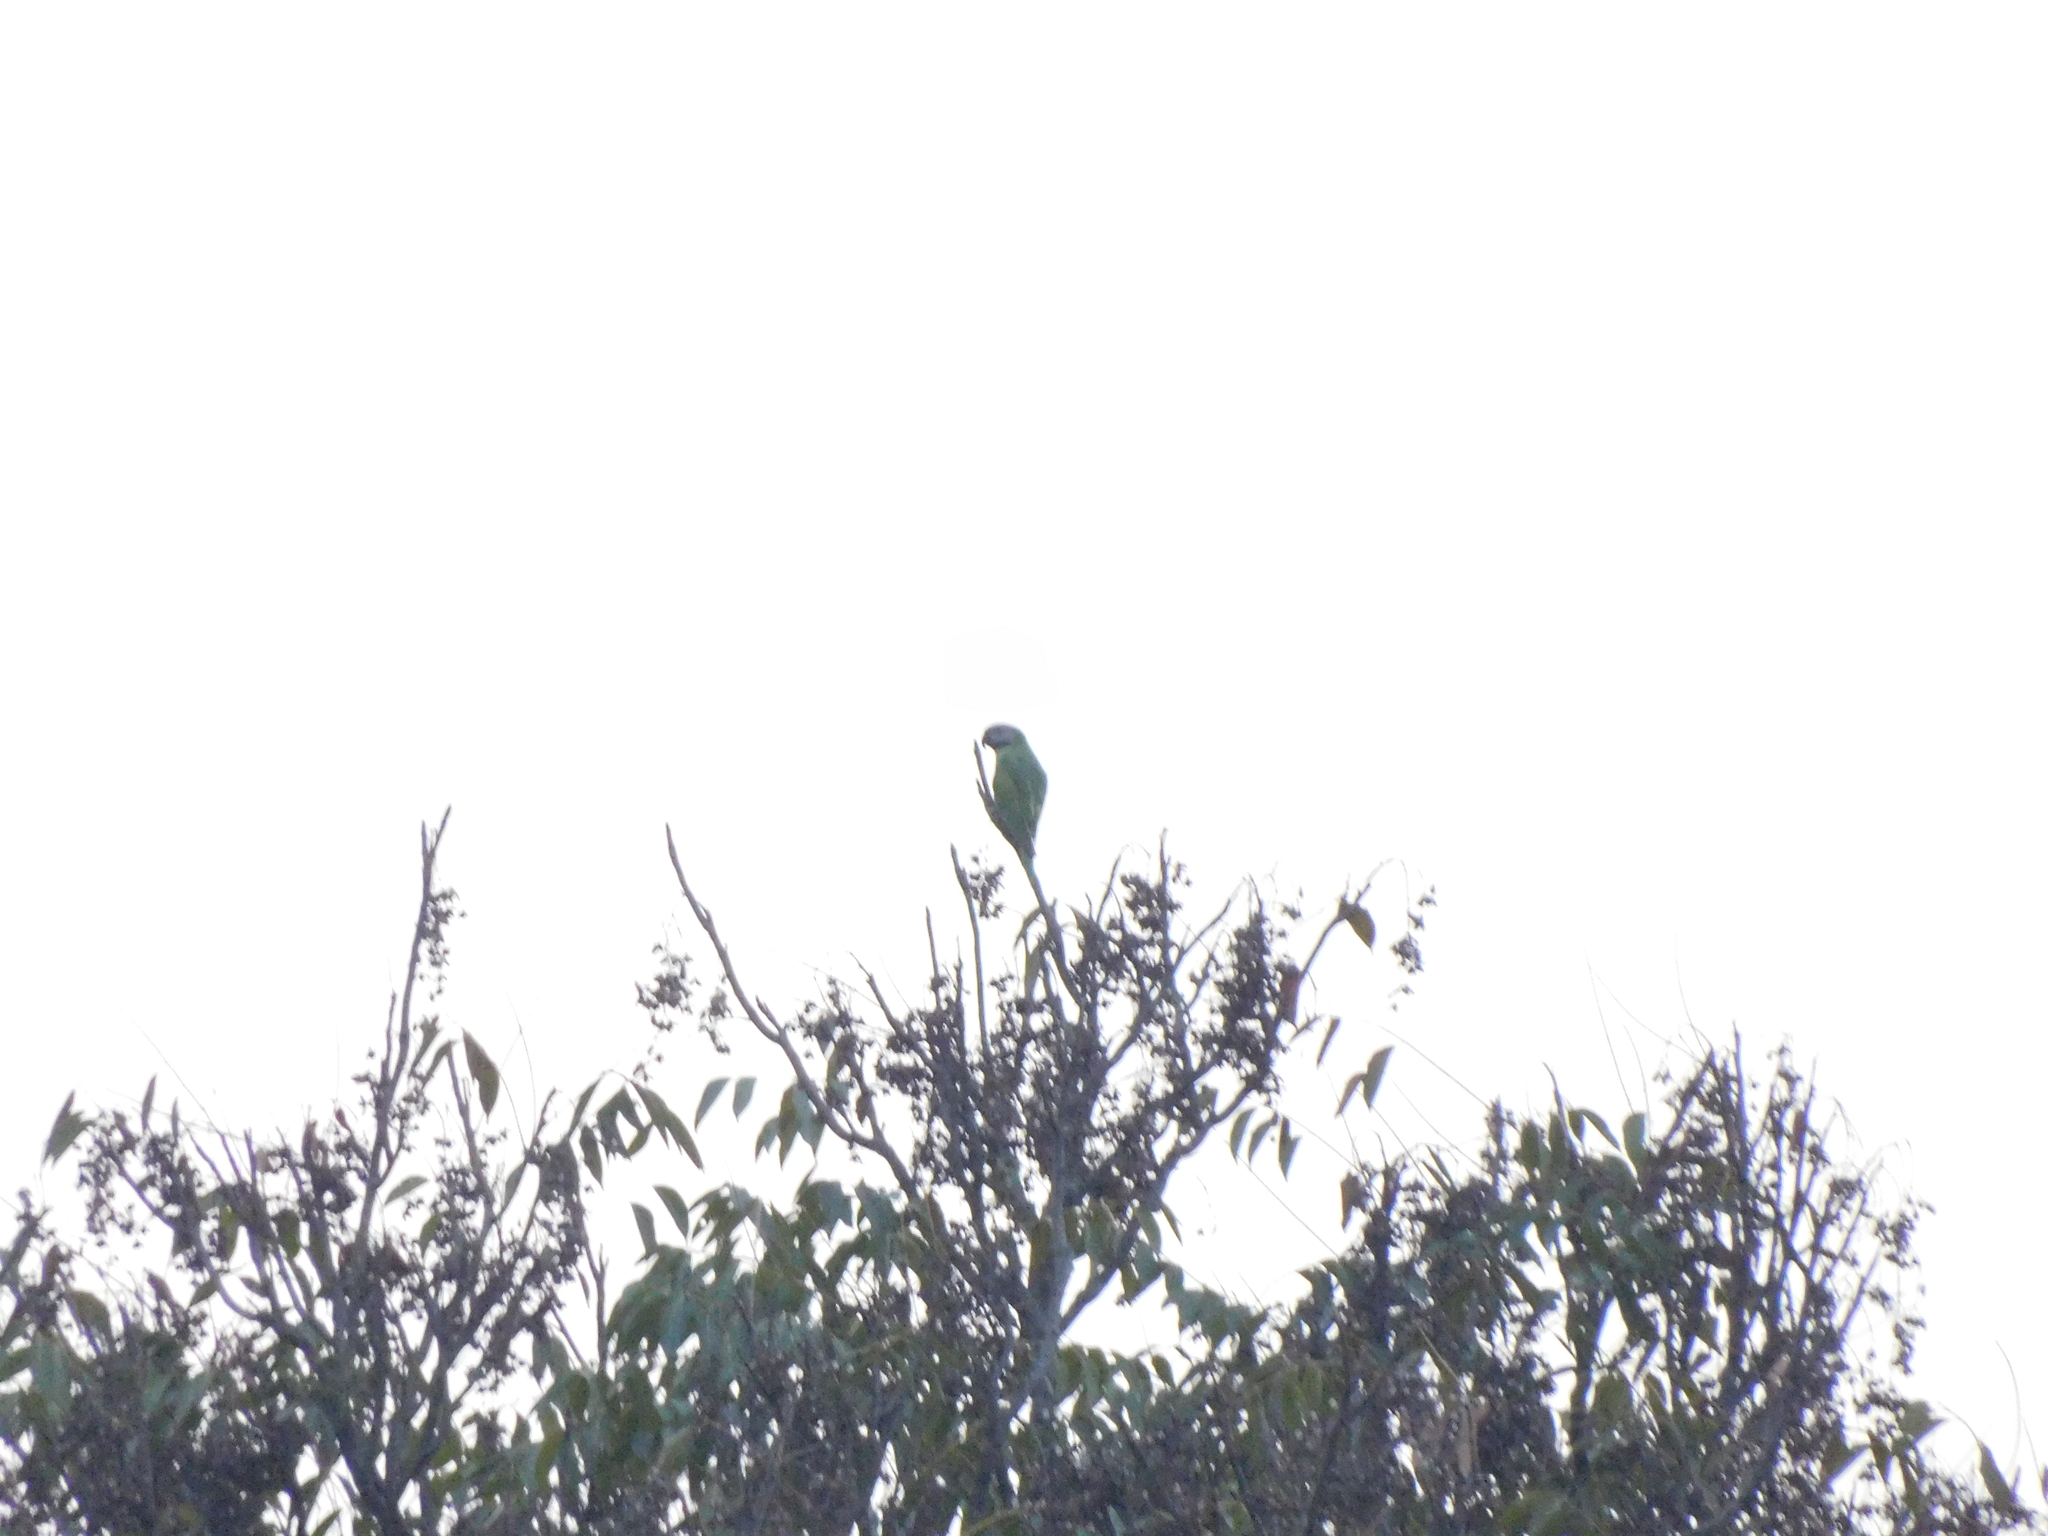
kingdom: Animalia
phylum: Chordata
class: Aves
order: Psittaciformes
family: Psittacidae
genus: Psittacula
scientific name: Psittacula alexandri
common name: Red-breasted parakeet
